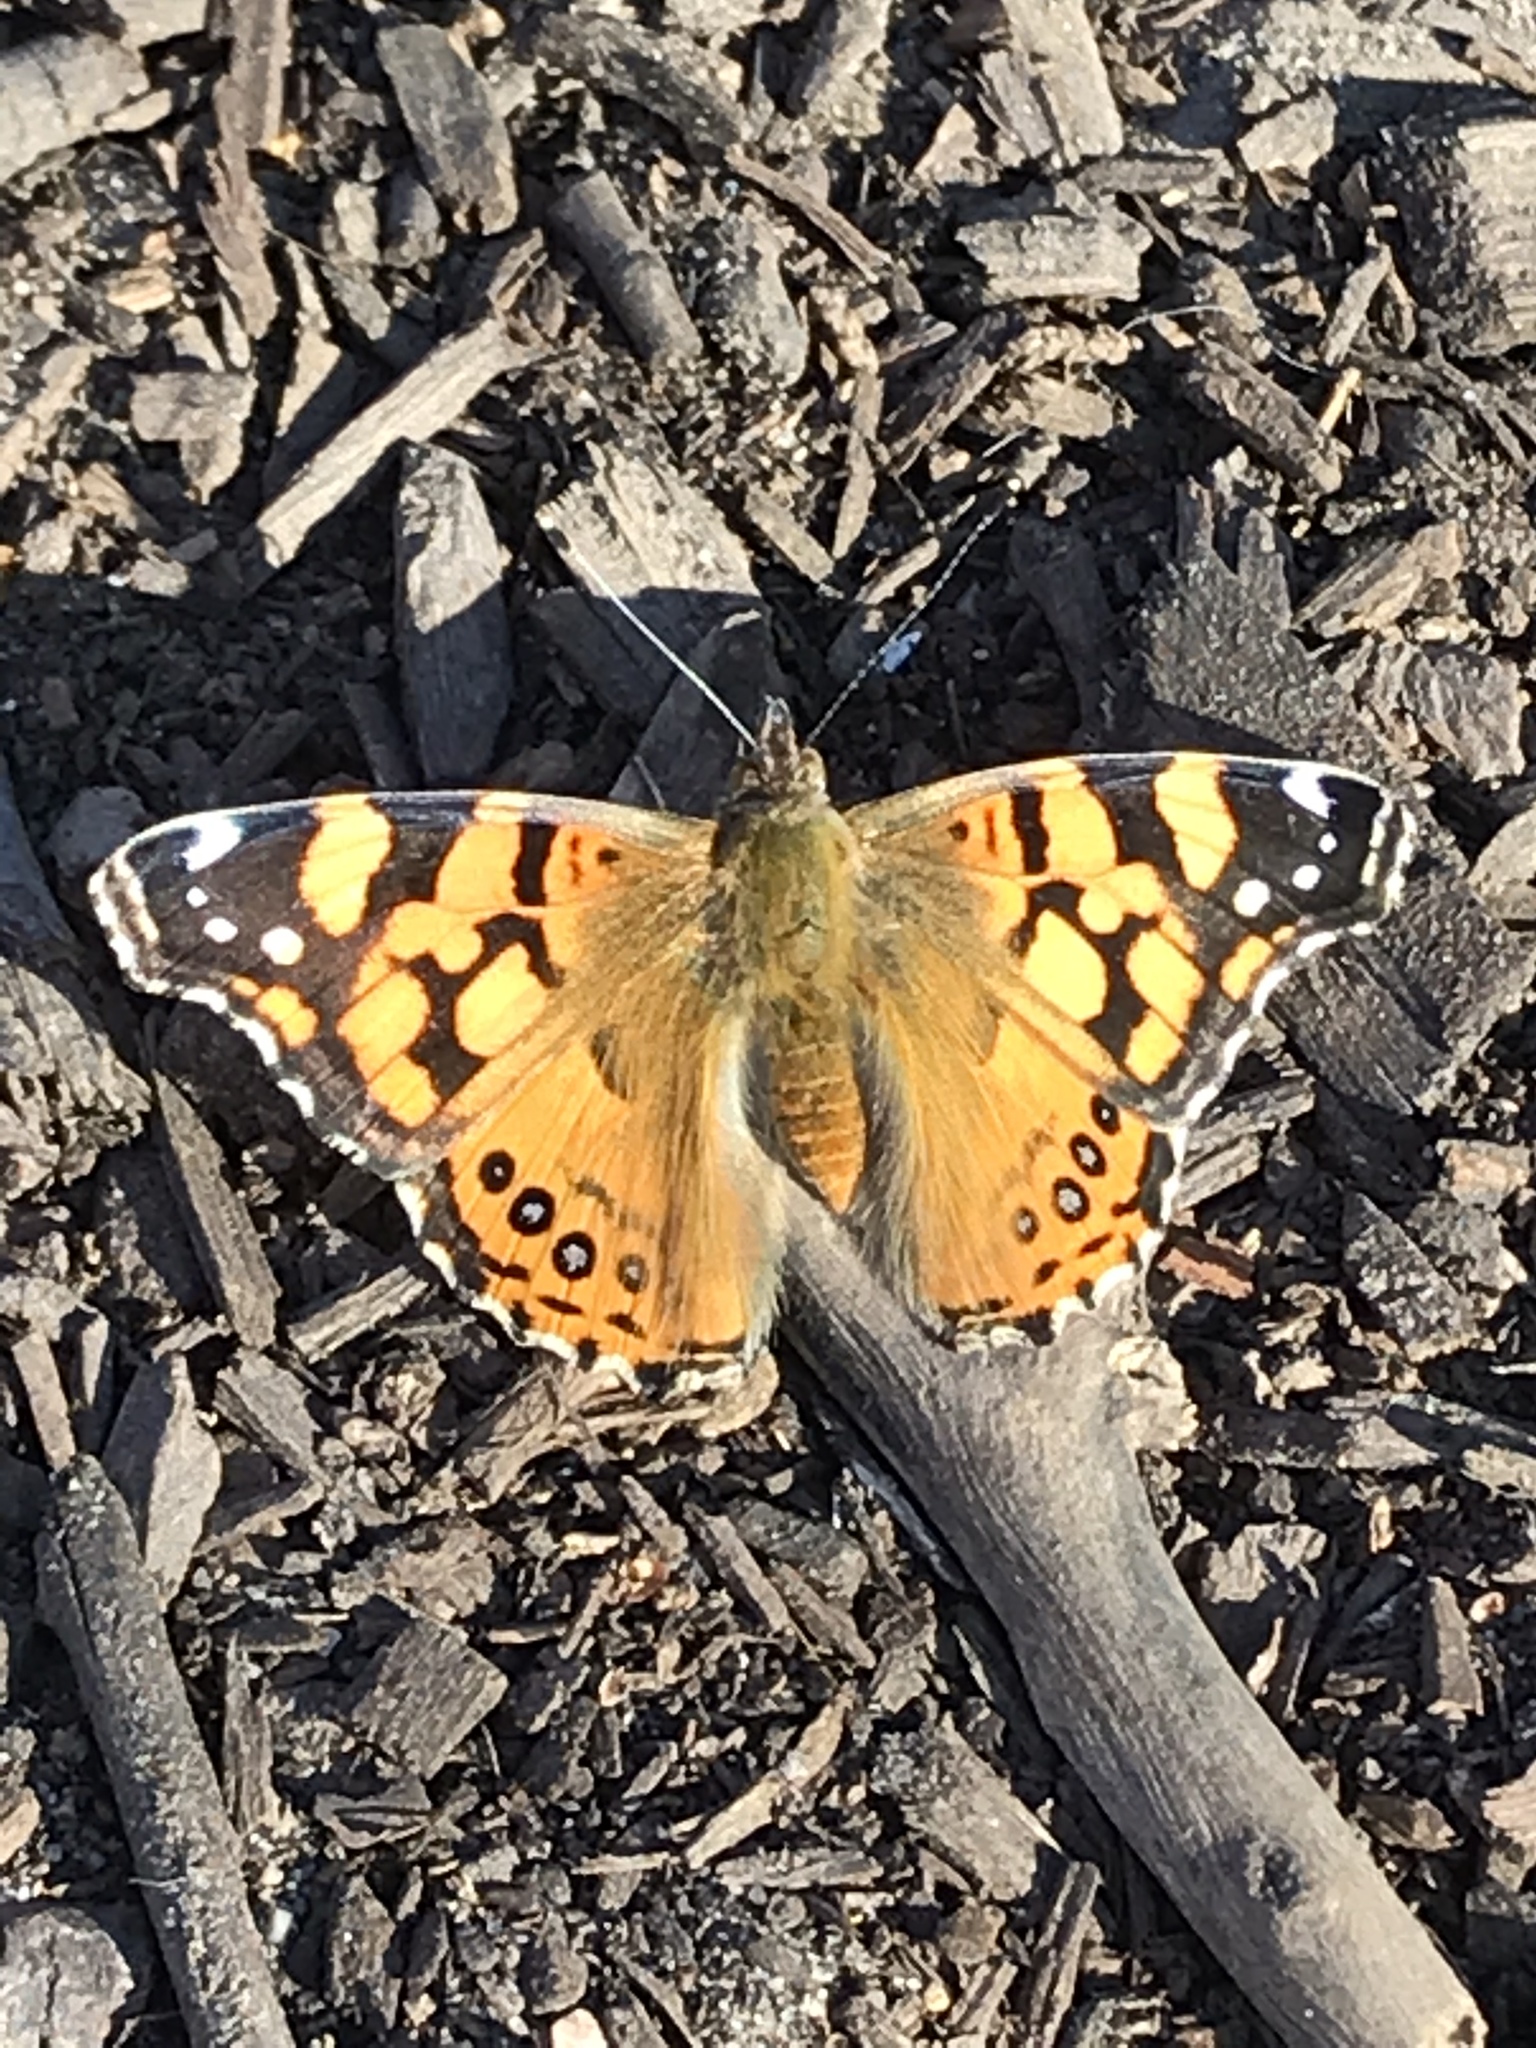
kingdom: Animalia
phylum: Arthropoda
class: Insecta
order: Lepidoptera
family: Nymphalidae
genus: Vanessa
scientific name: Vanessa annabella
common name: West coast lady
